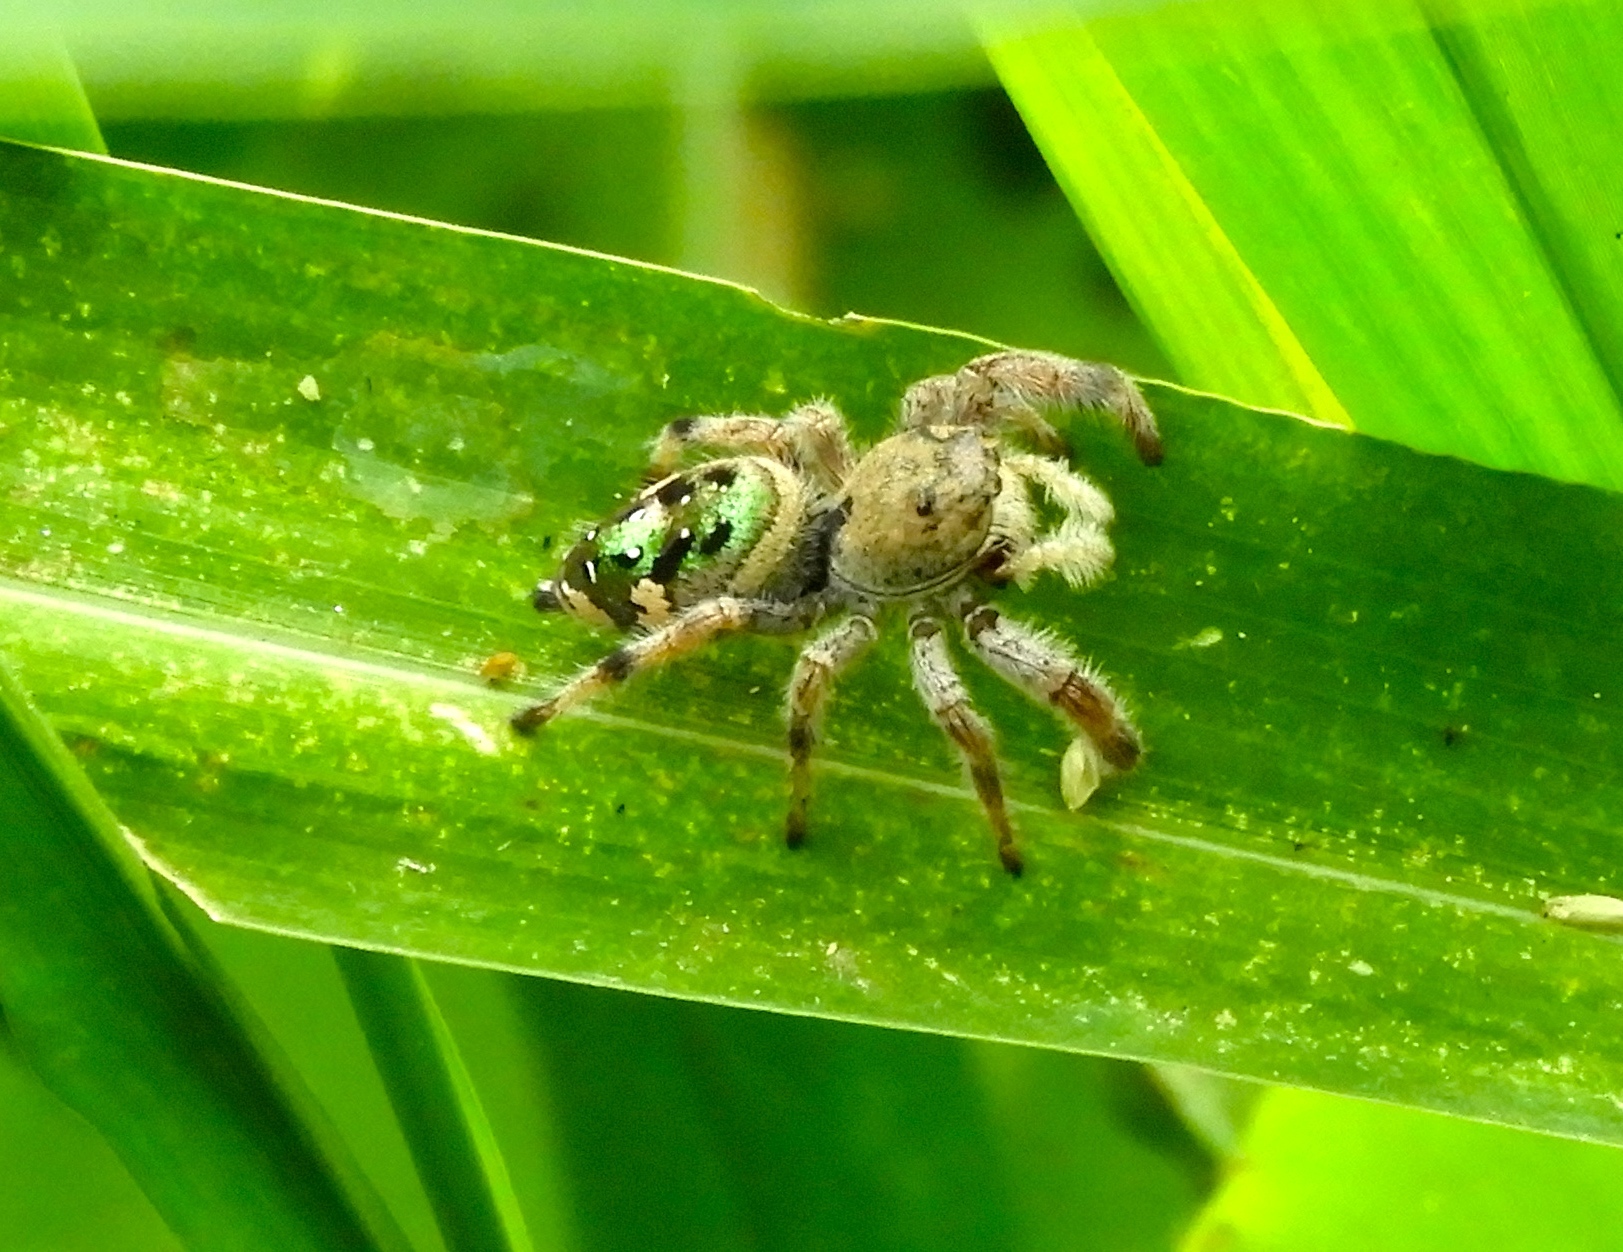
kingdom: Animalia
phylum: Arthropoda
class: Arachnida
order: Araneae
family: Salticidae
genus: Paraphidippus
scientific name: Paraphidippus
